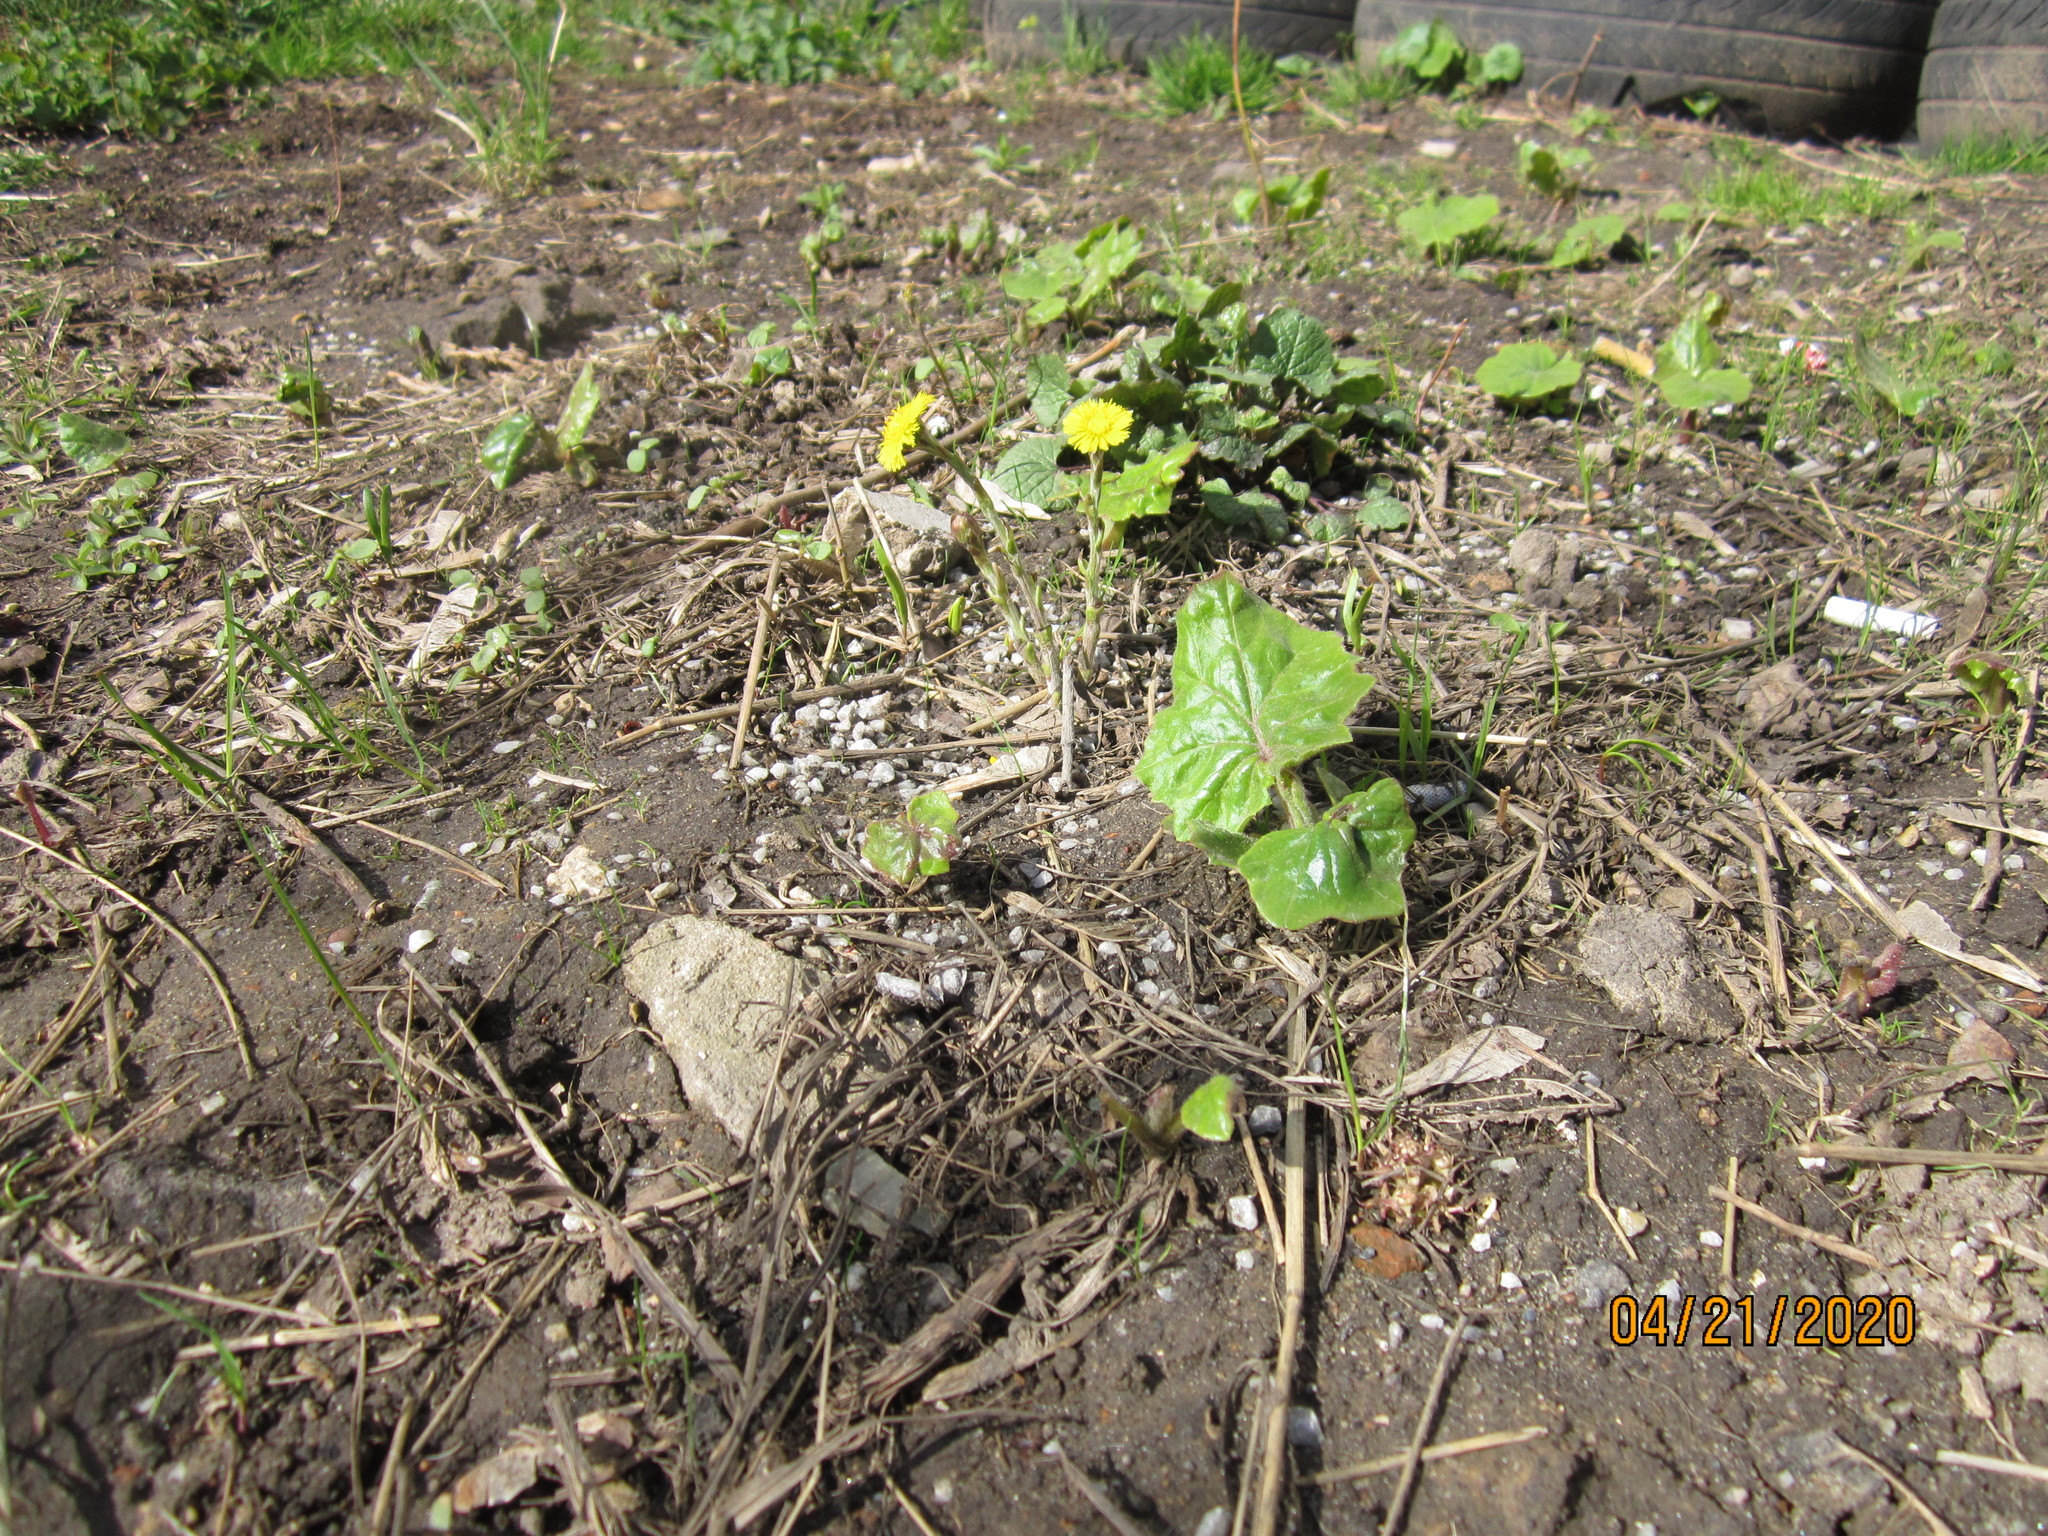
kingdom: Plantae
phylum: Tracheophyta
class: Magnoliopsida
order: Asterales
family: Asteraceae
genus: Tussilago
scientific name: Tussilago farfara
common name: Coltsfoot
